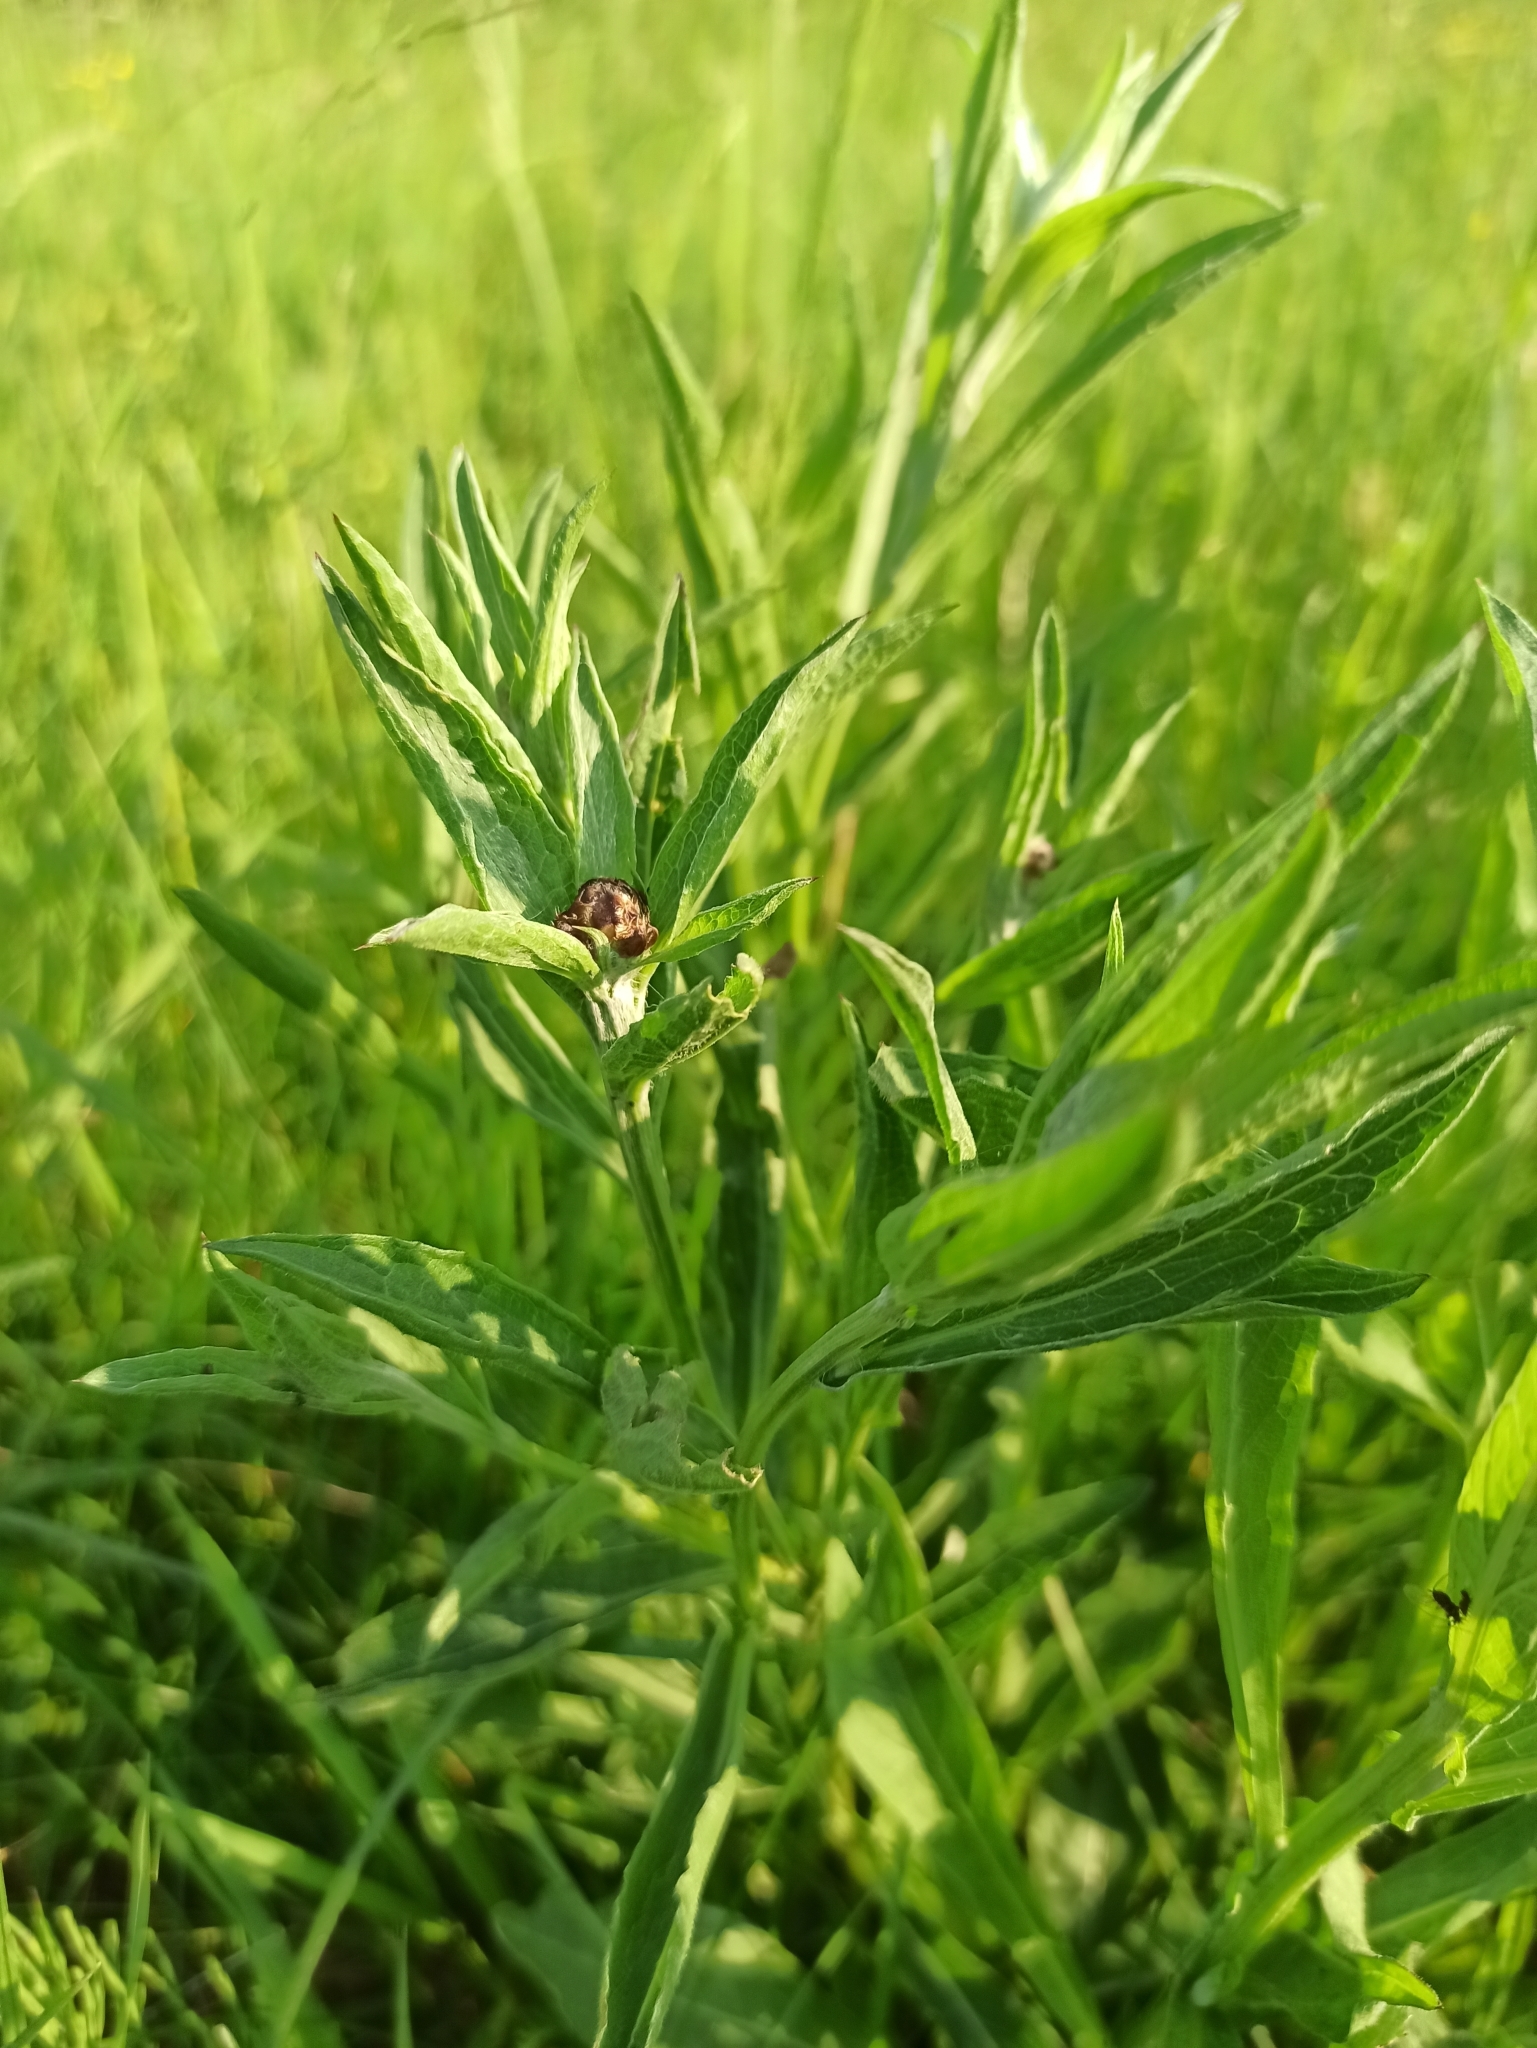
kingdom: Plantae
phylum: Tracheophyta
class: Magnoliopsida
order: Asterales
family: Asteraceae
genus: Centaurea
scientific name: Centaurea jacea
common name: Brown knapweed
